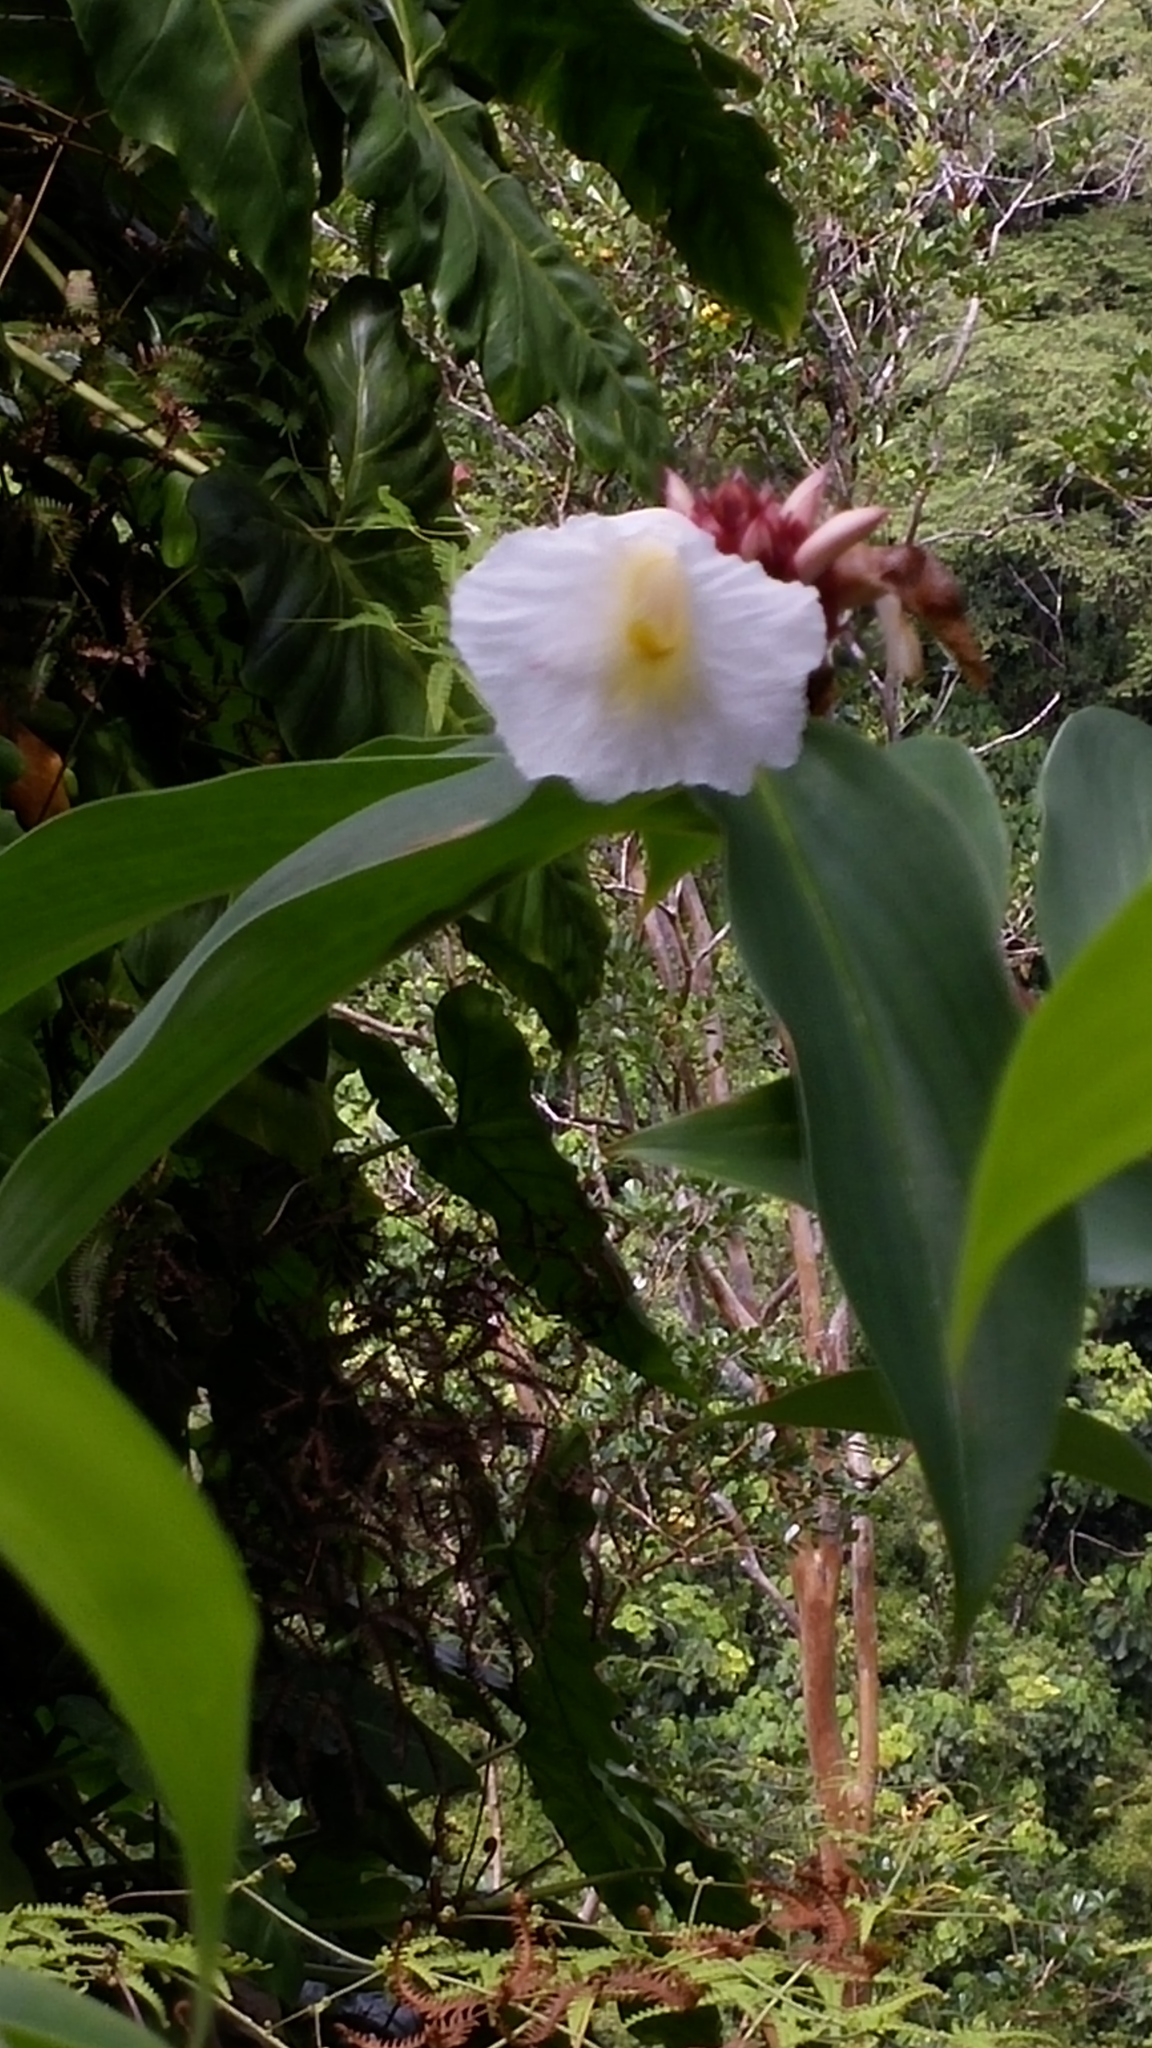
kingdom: Plantae
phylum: Tracheophyta
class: Liliopsida
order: Zingiberales
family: Costaceae
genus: Hellenia
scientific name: Hellenia speciosa
